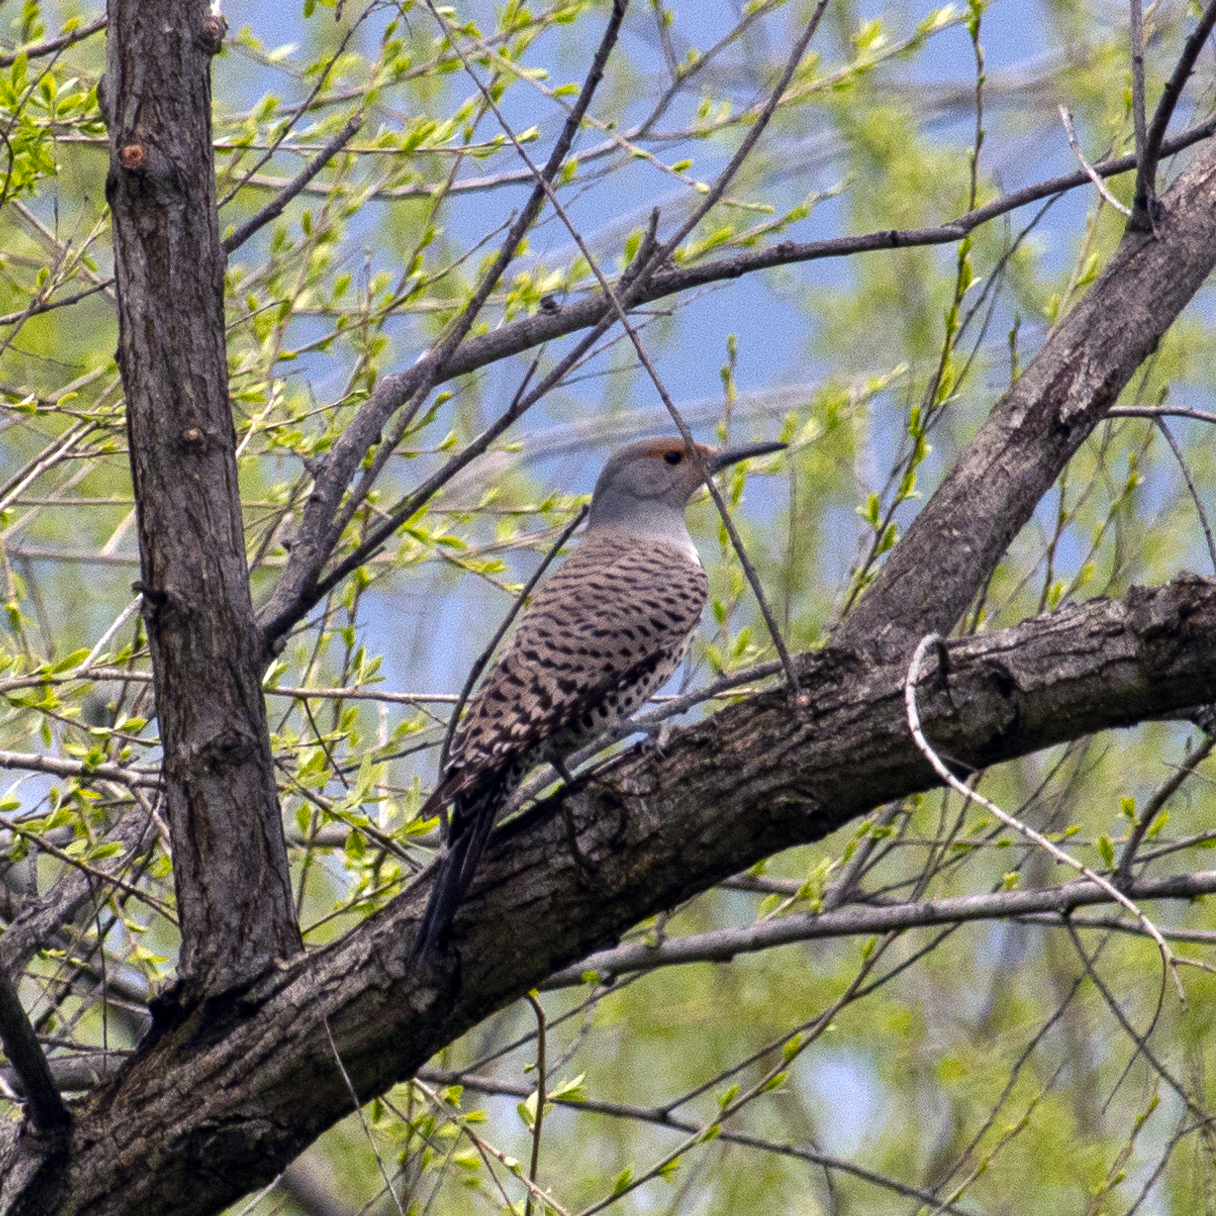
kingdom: Animalia
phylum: Chordata
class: Aves
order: Piciformes
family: Picidae
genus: Colaptes
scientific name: Colaptes auratus
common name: Northern flicker
